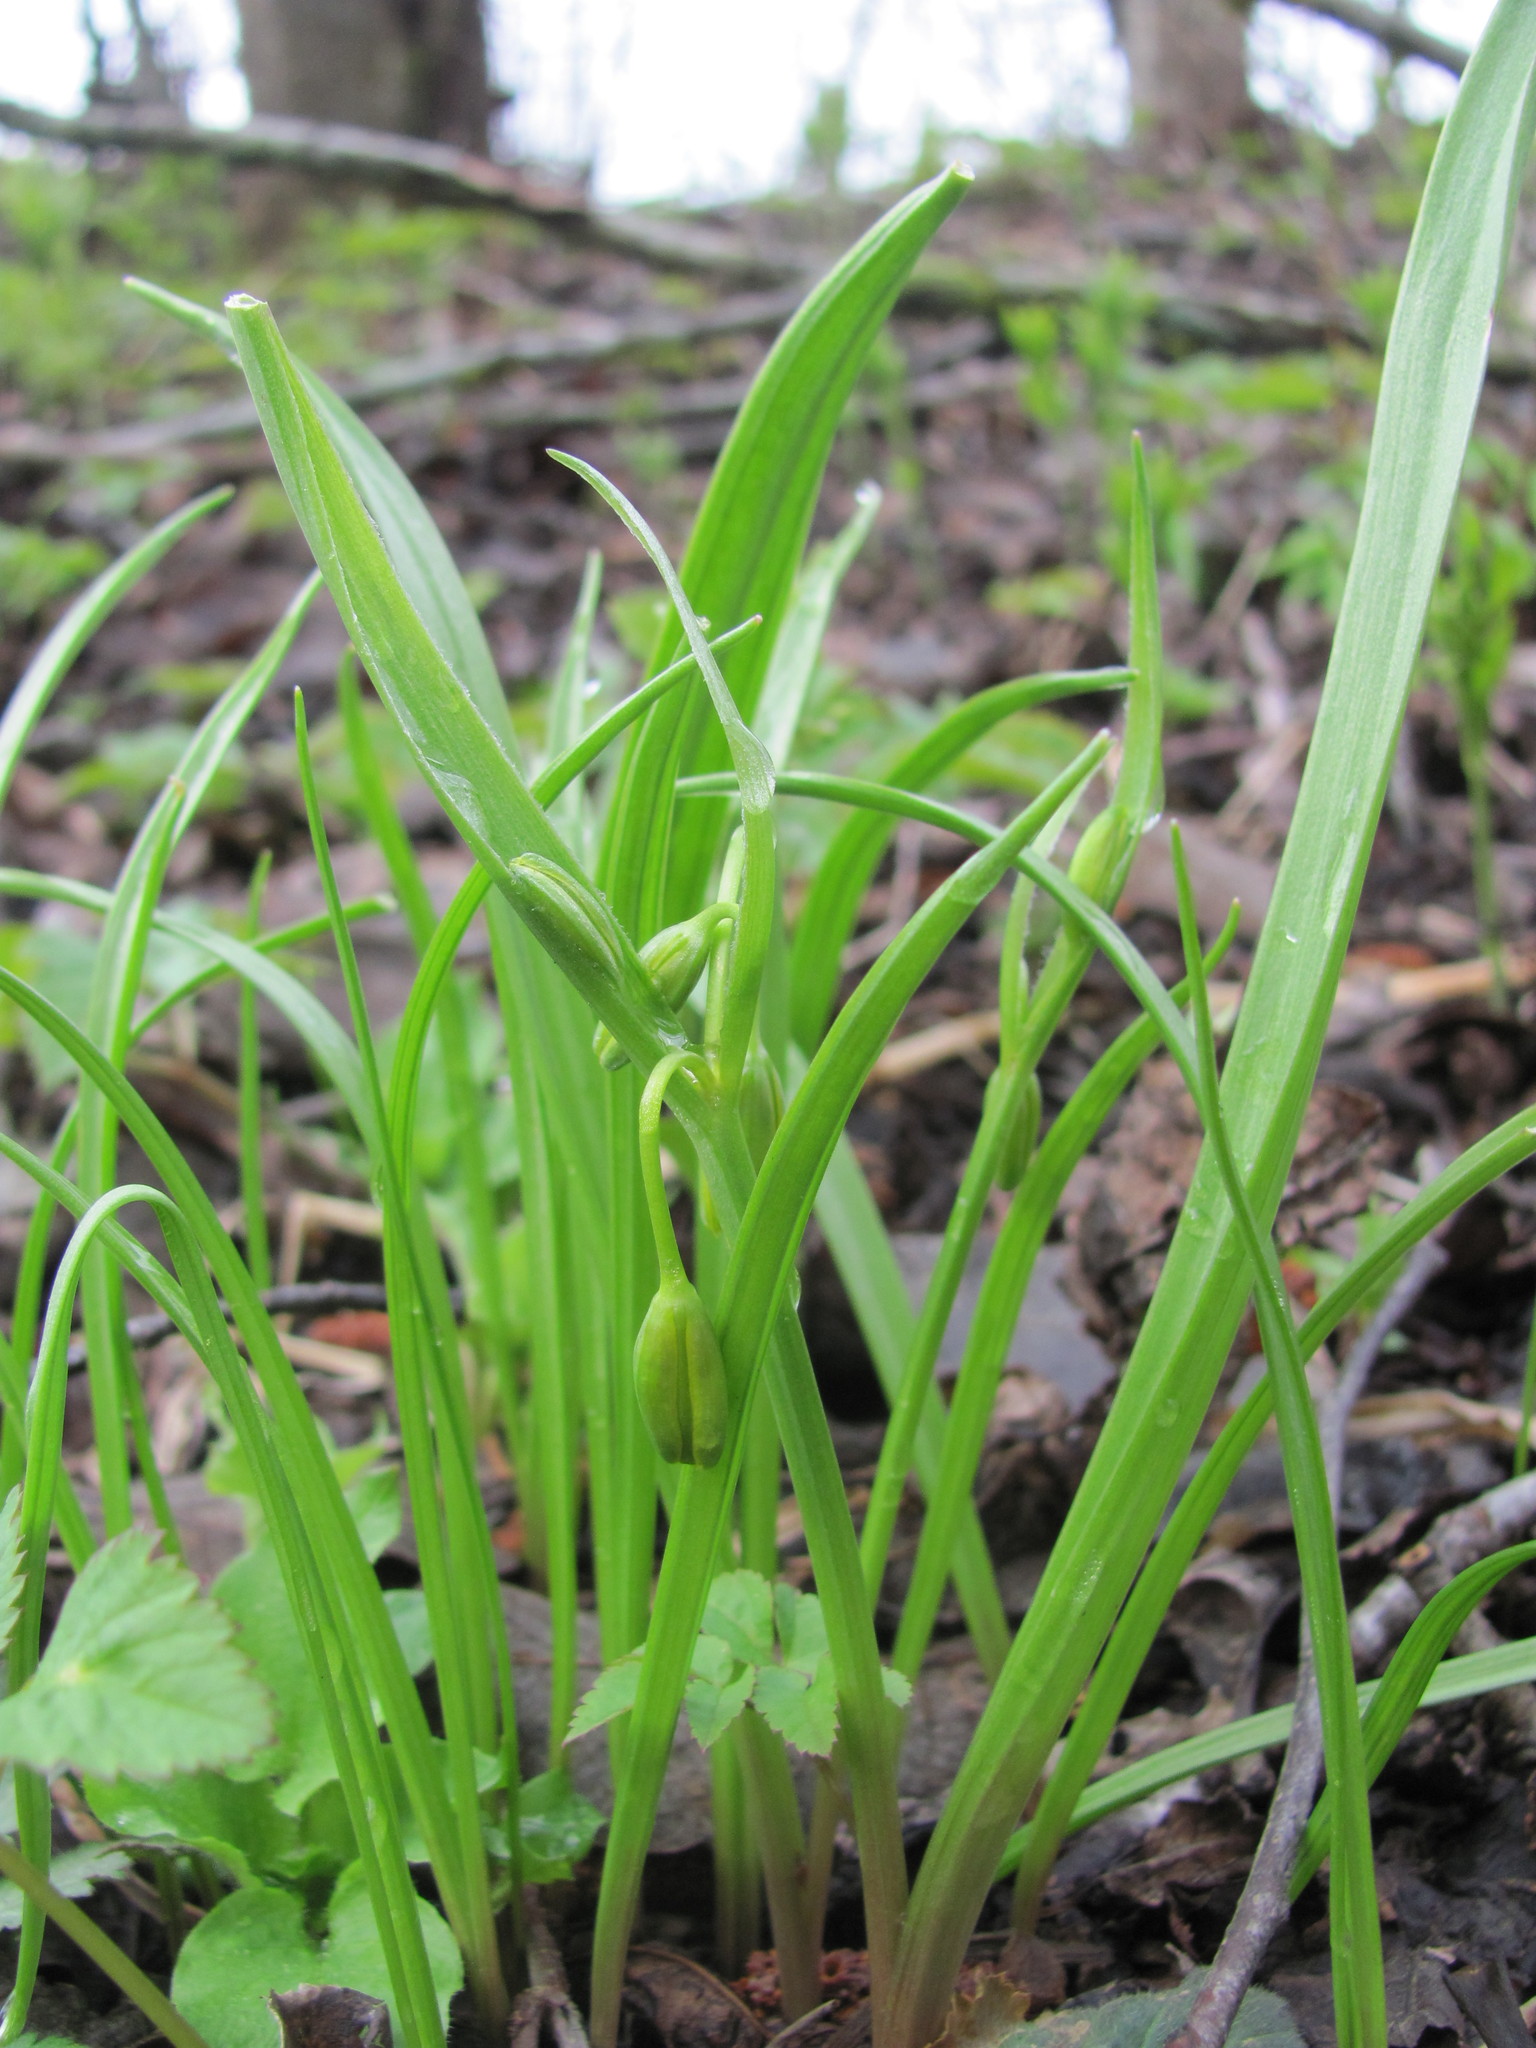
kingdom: Plantae
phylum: Tracheophyta
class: Liliopsida
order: Liliales
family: Liliaceae
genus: Gagea
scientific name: Gagea lutea
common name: Yellow star-of-bethlehem
